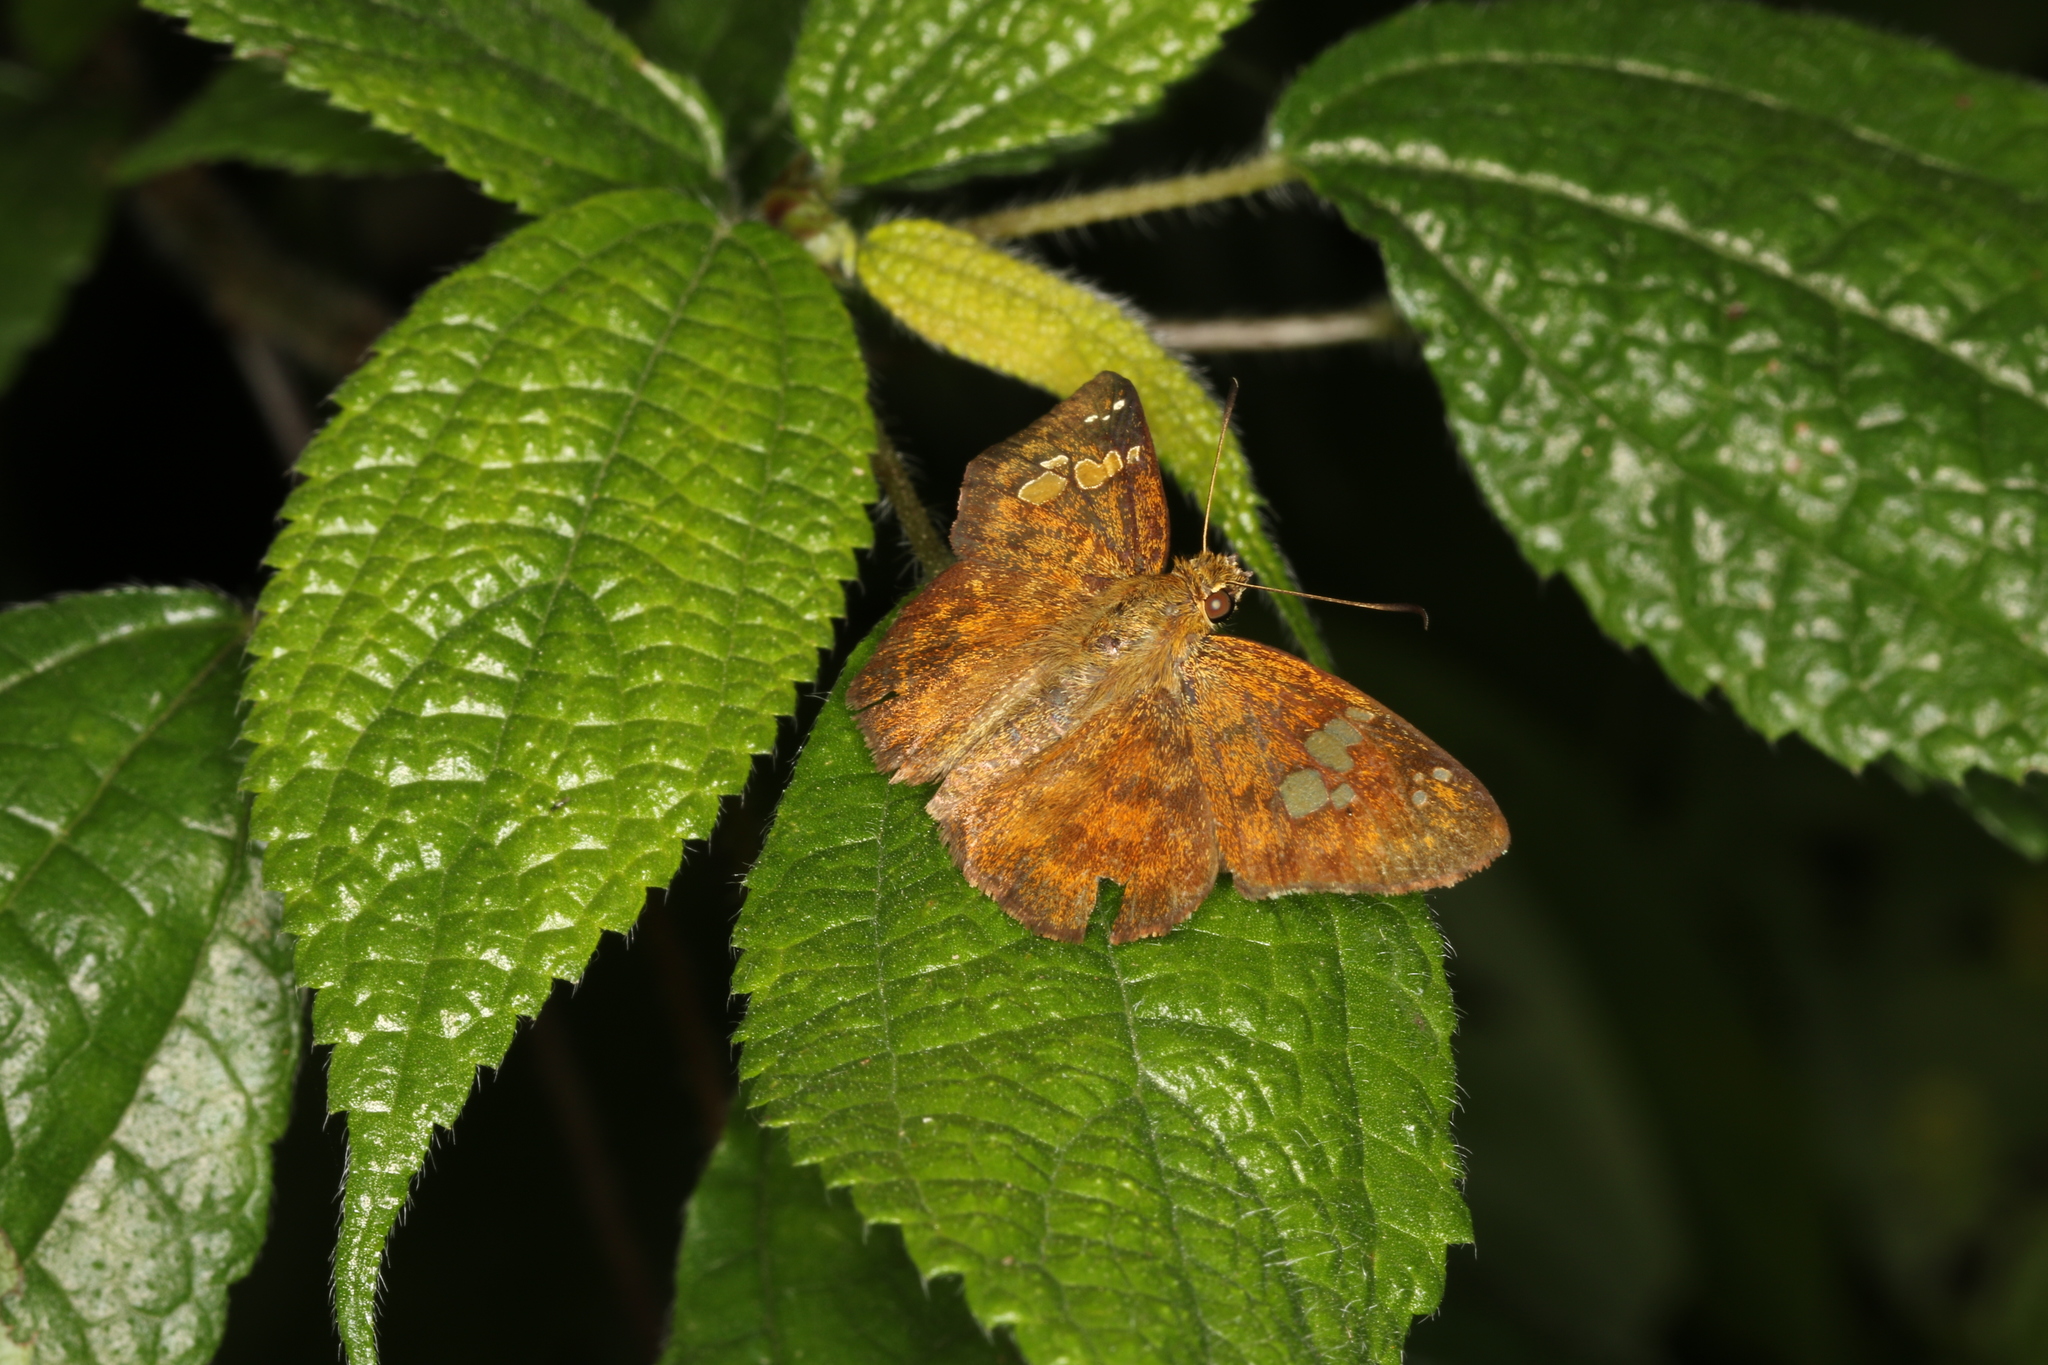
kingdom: Animalia
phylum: Arthropoda
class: Insecta
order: Lepidoptera
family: Hesperiidae
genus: Pseudocoladenia
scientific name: Pseudocoladenia dan
